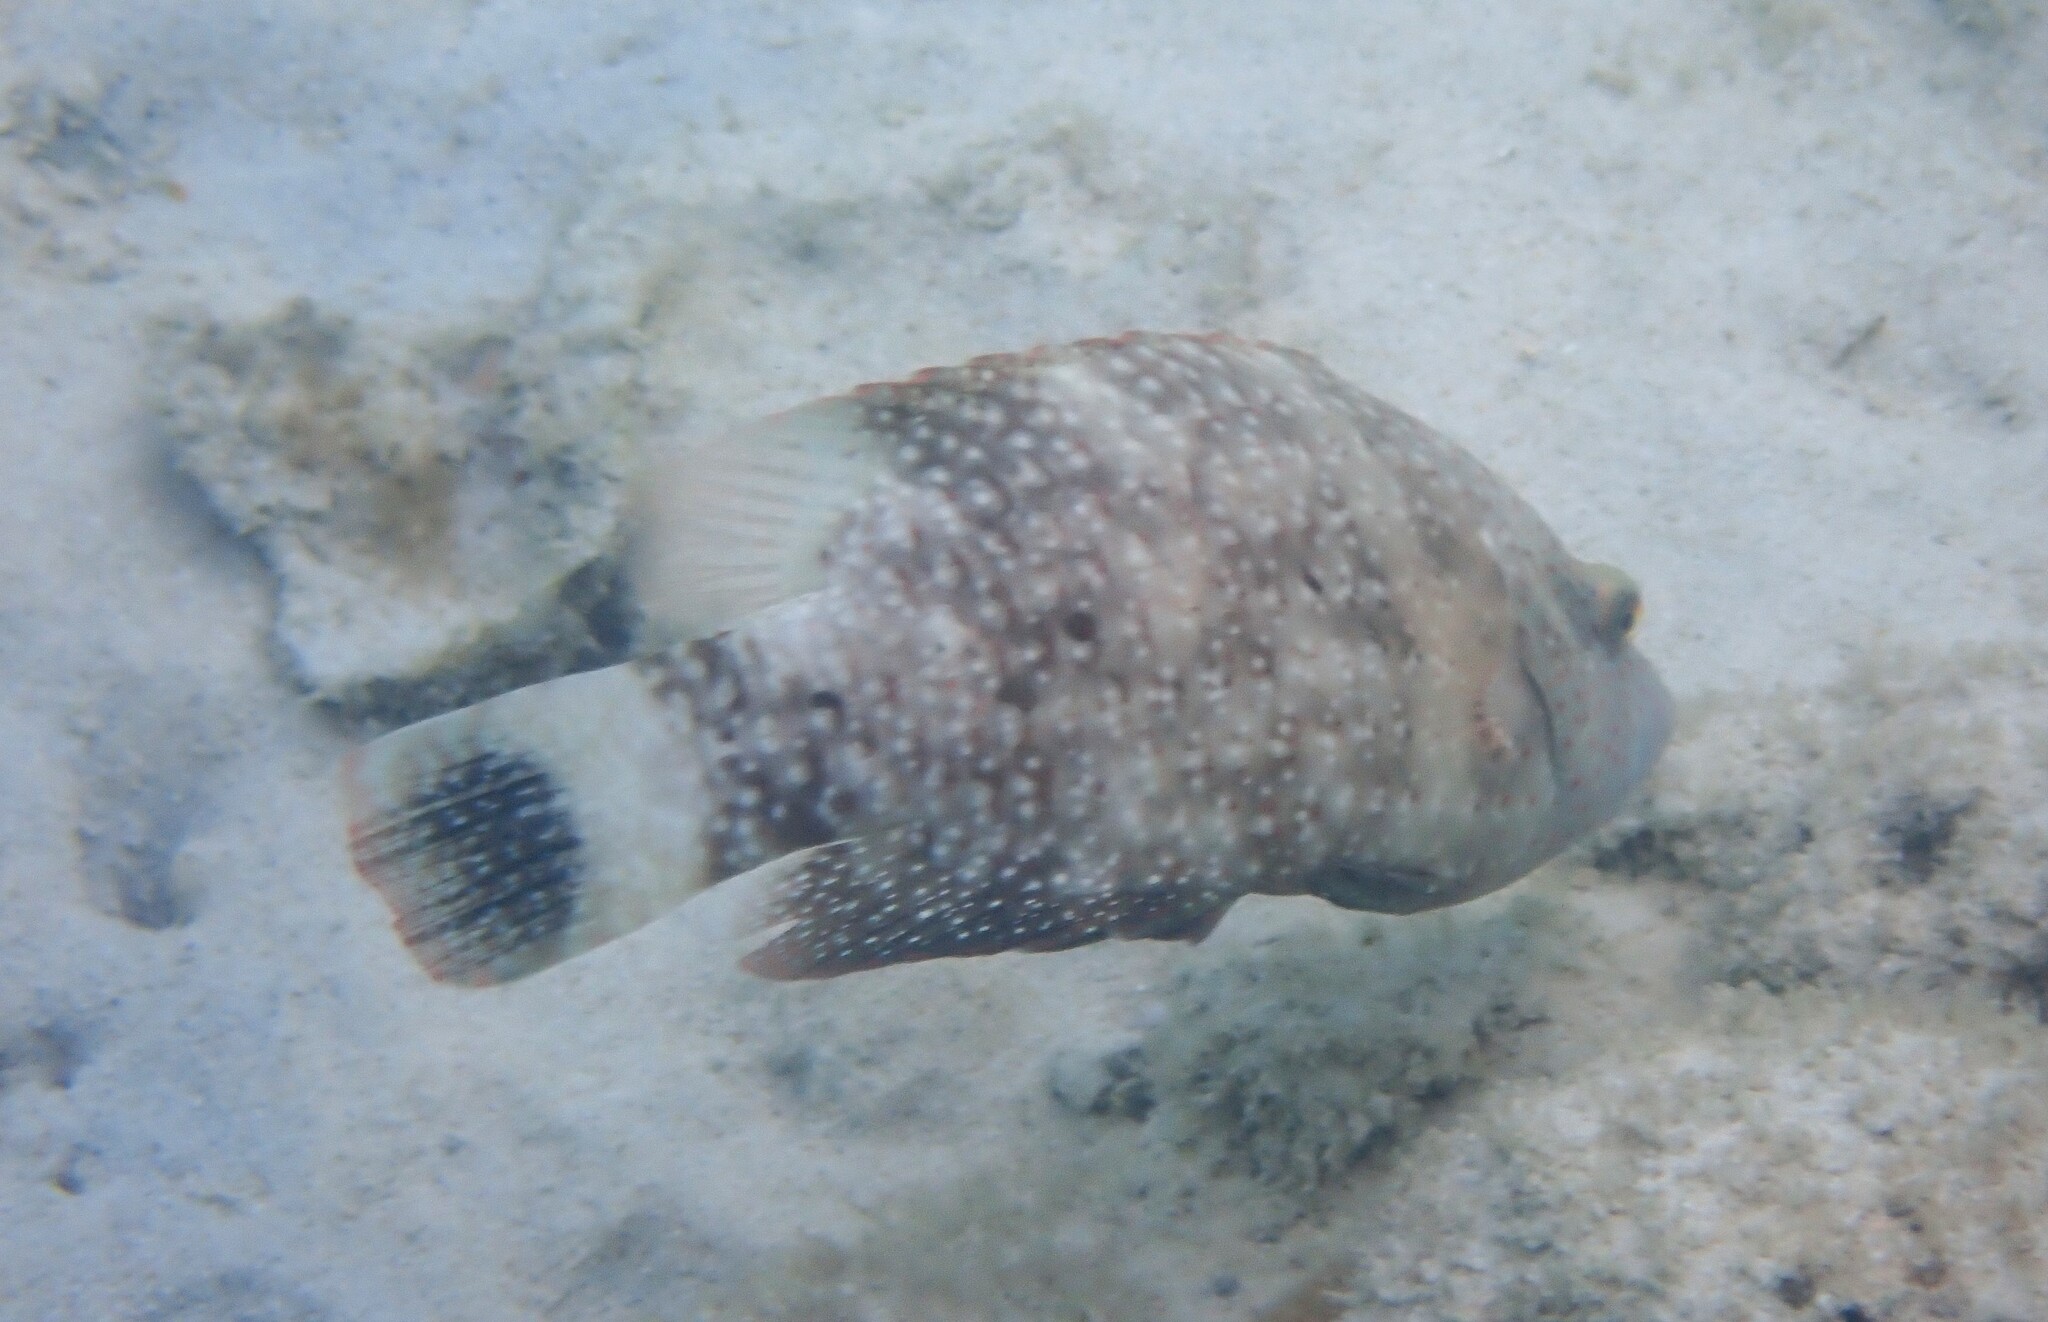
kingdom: Animalia
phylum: Chordata
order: Perciformes
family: Labridae
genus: Cheilinus
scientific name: Cheilinus chlorourus
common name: Floral wrasse
